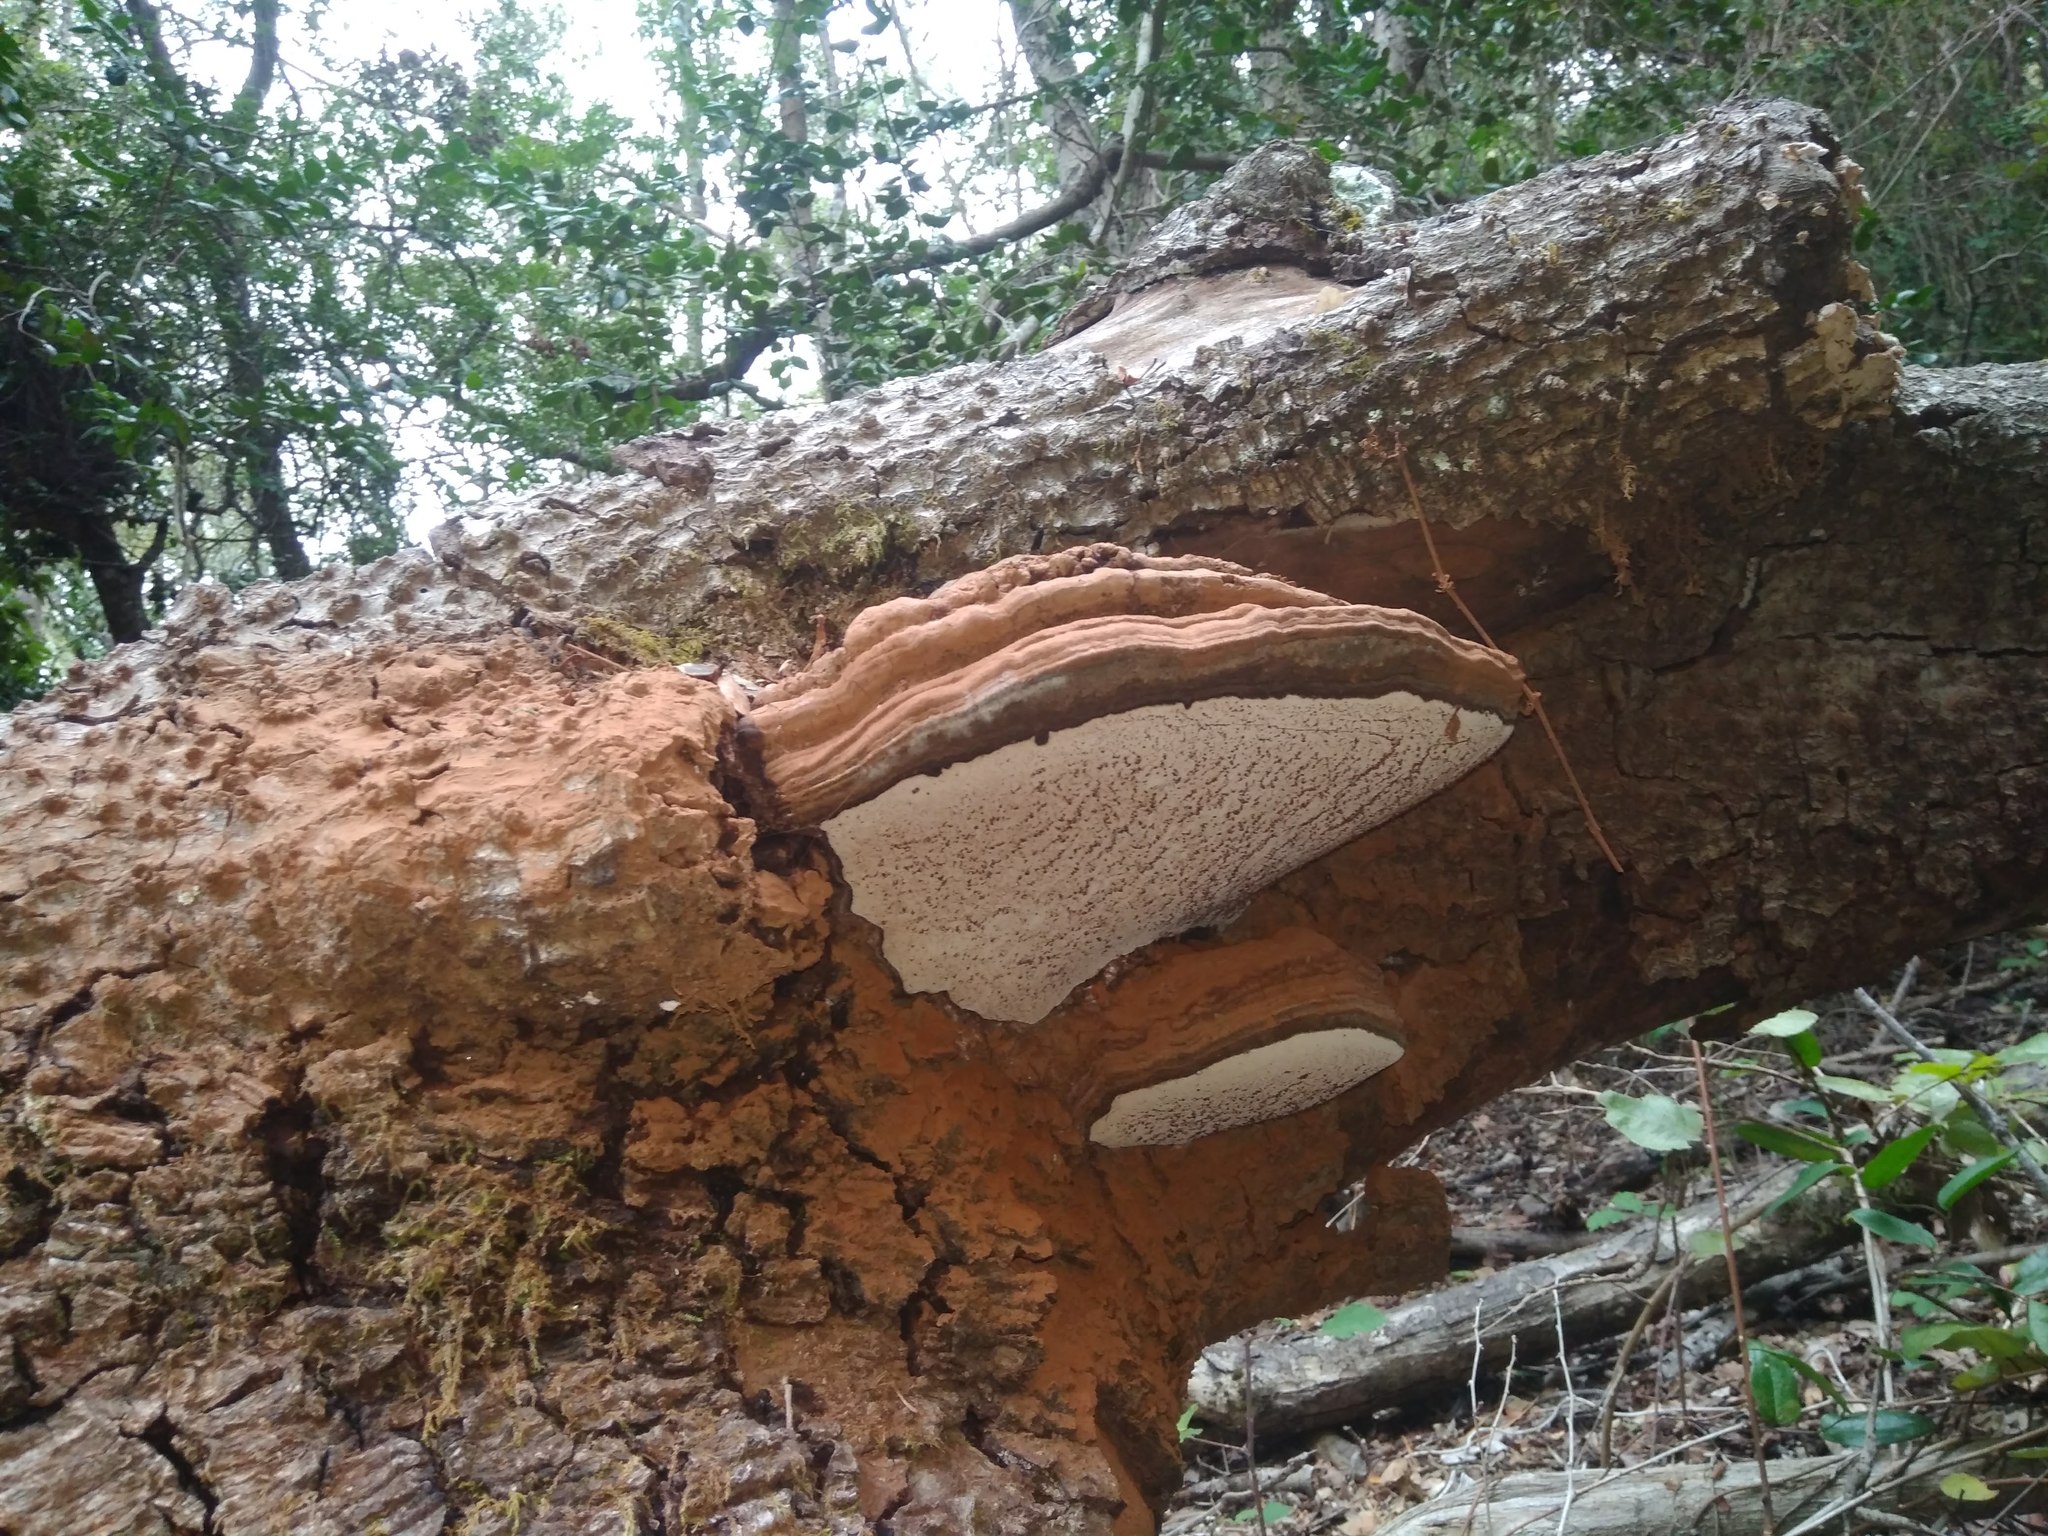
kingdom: Fungi
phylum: Basidiomycota
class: Agaricomycetes
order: Polyporales
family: Polyporaceae
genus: Ganoderma
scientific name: Ganoderma australe
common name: Southern bracket
